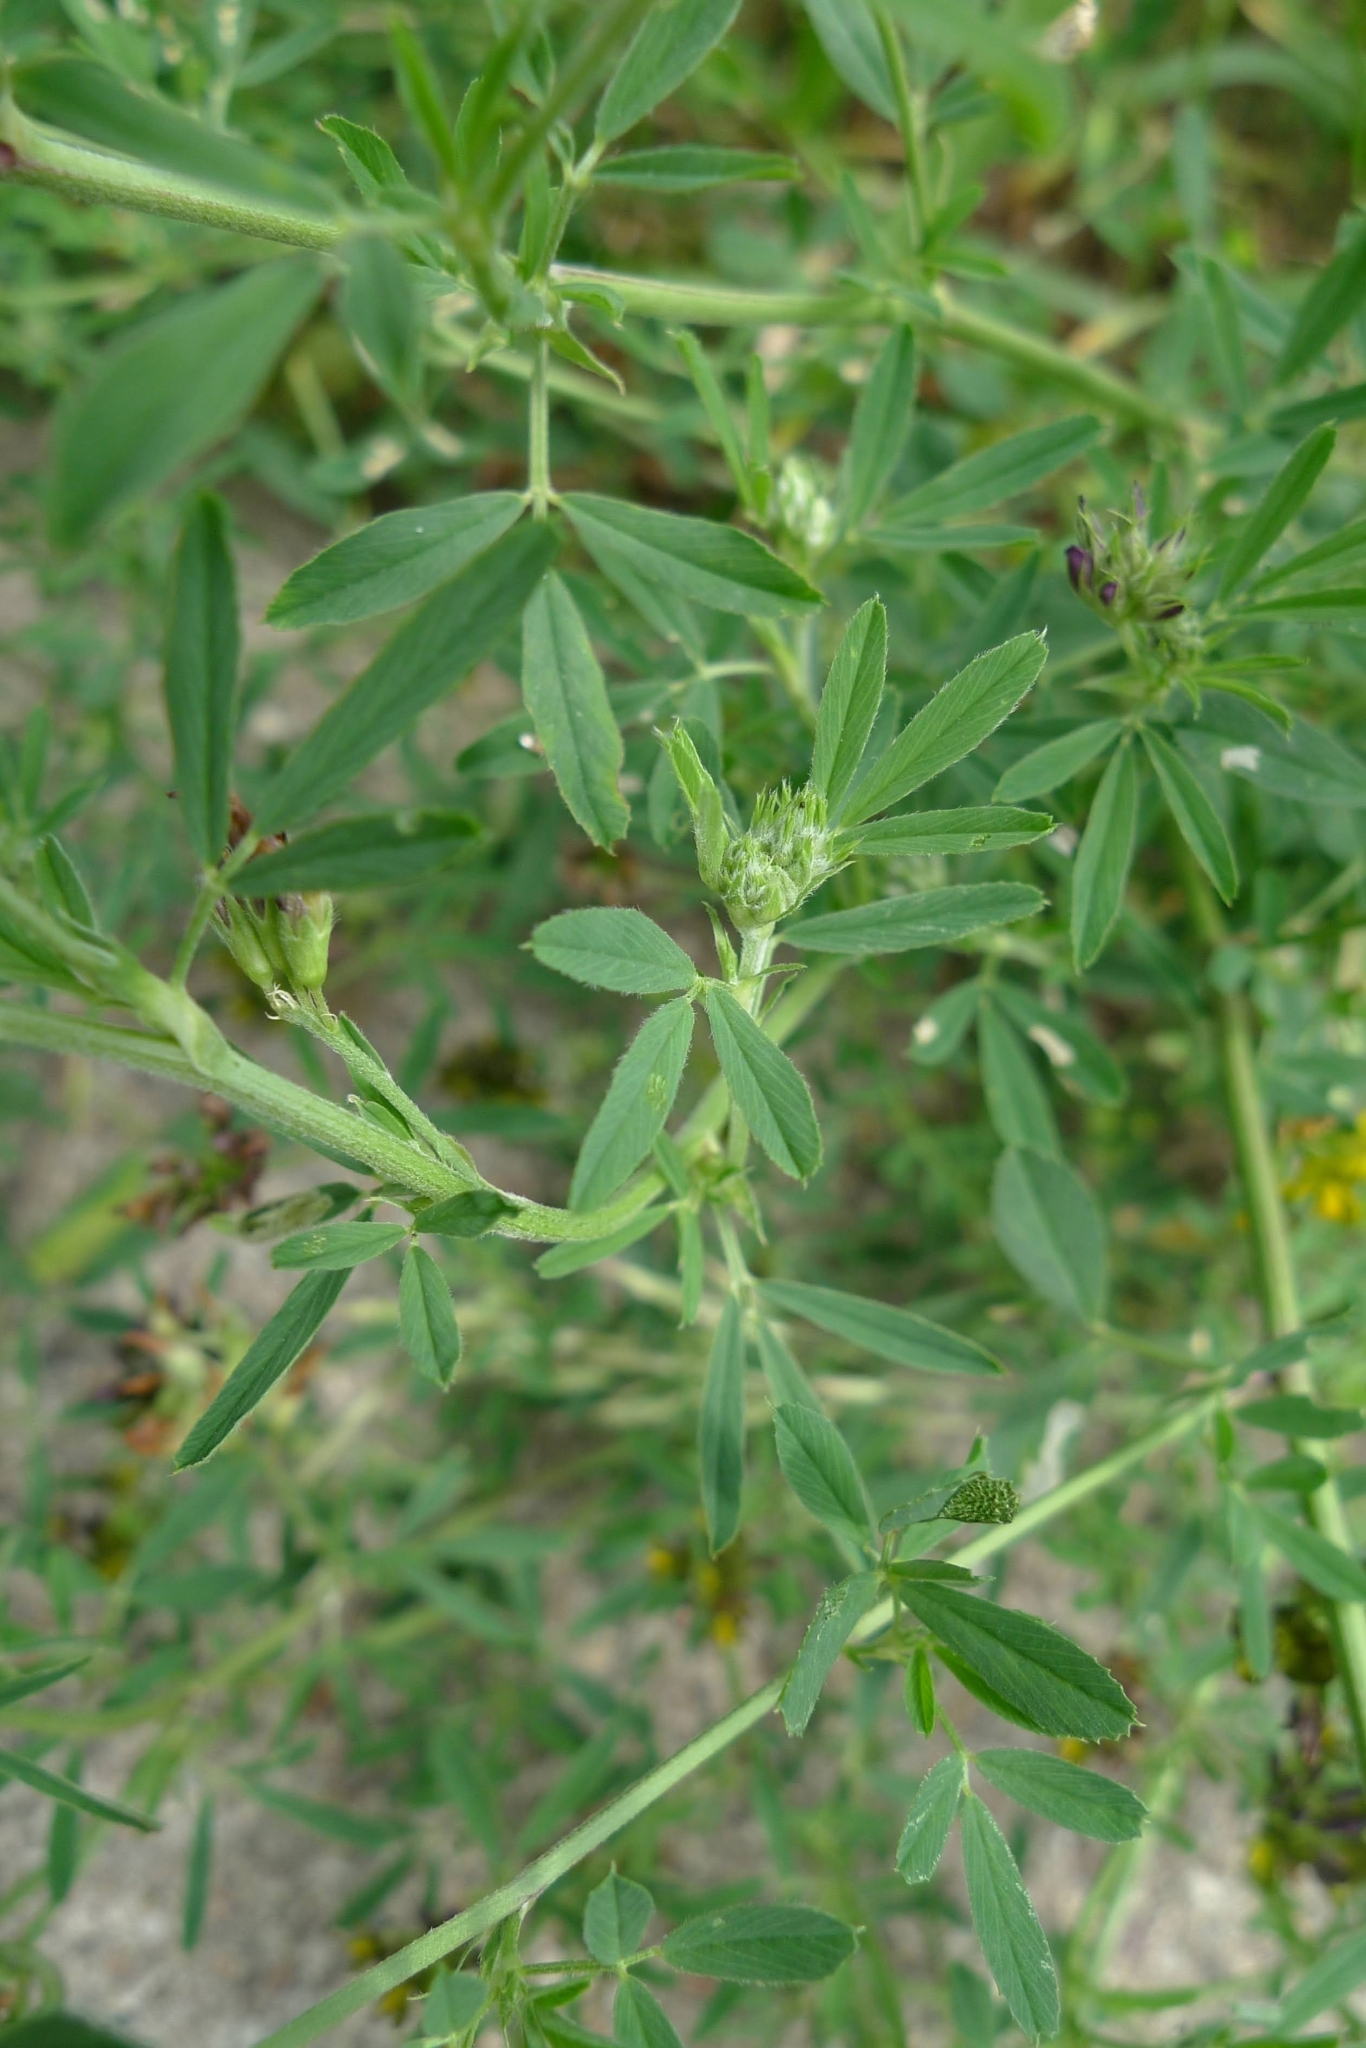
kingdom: Plantae
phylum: Tracheophyta
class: Magnoliopsida
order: Fabales
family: Fabaceae
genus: Medicago
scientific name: Medicago varia
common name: Sand lucerne
